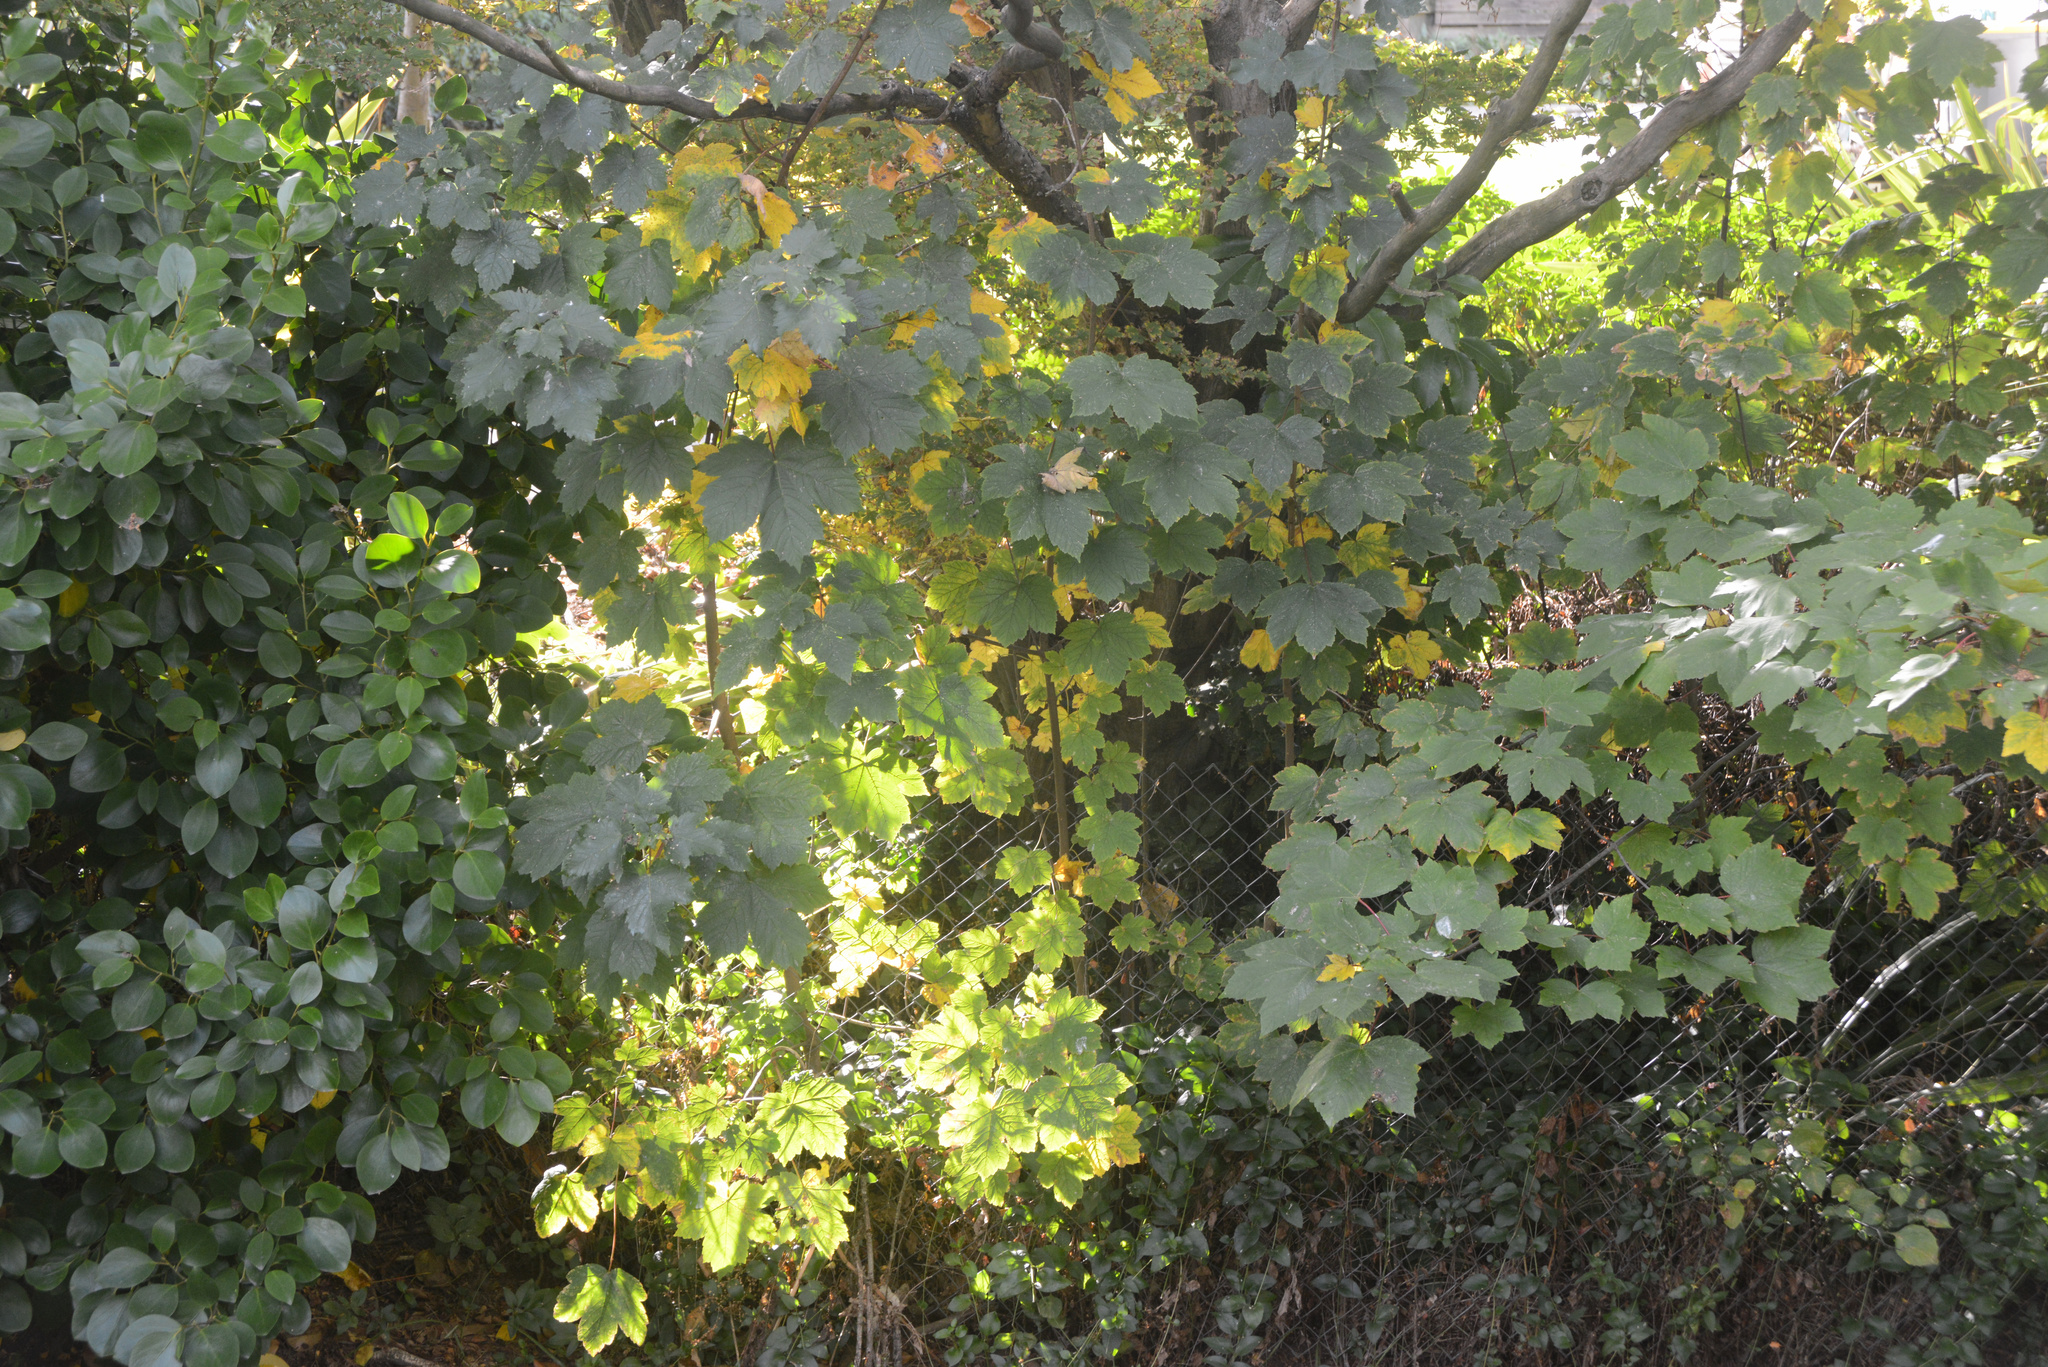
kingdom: Plantae
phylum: Tracheophyta
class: Magnoliopsida
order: Sapindales
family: Sapindaceae
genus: Acer
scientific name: Acer pseudoplatanus
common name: Sycamore
